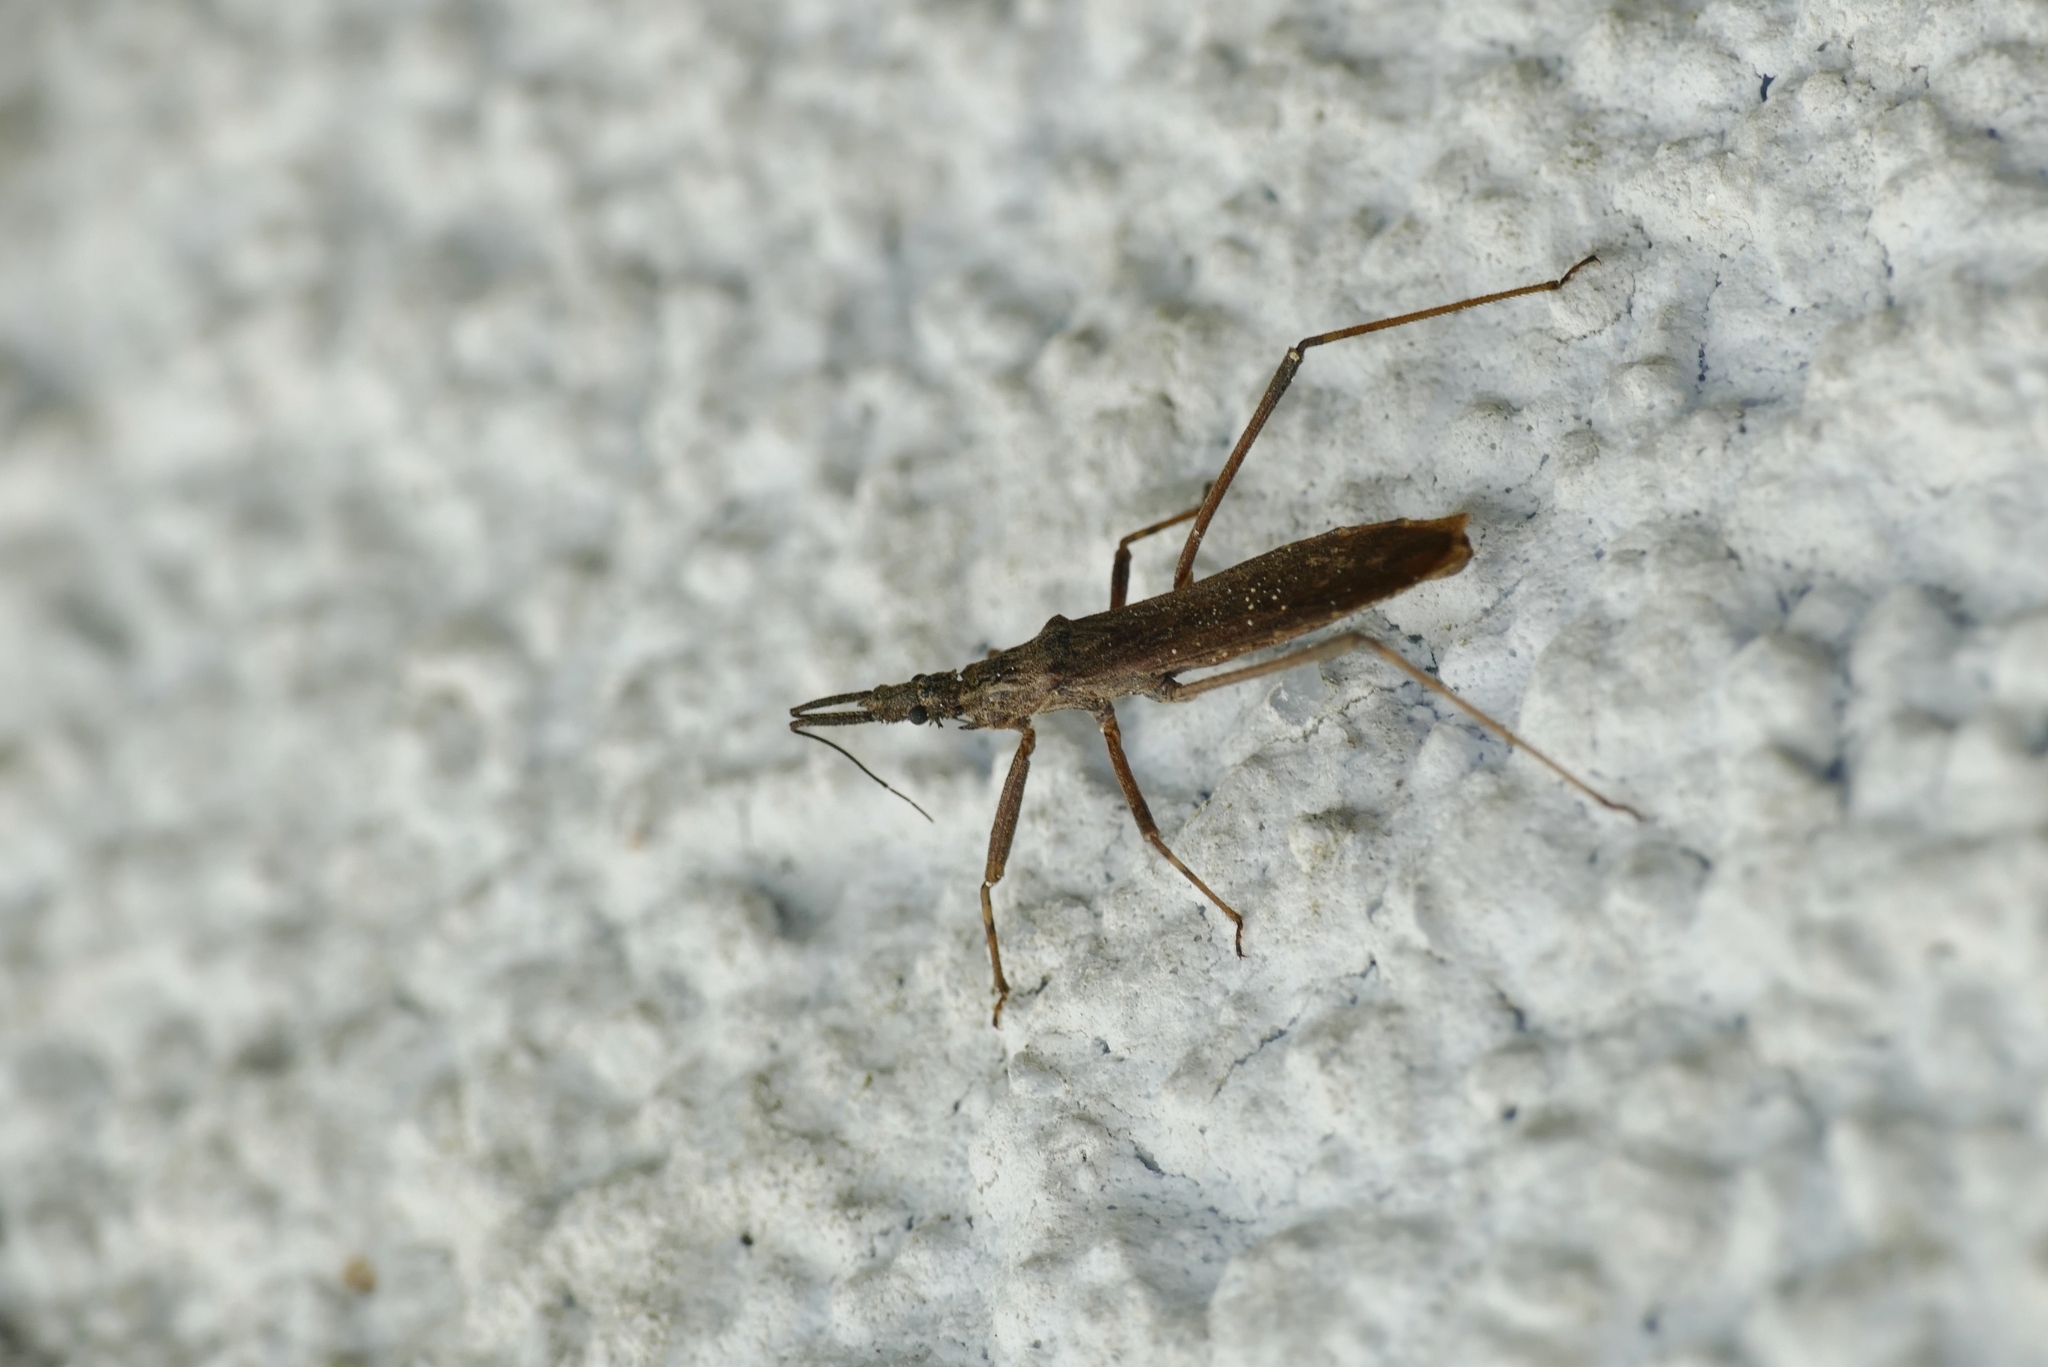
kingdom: Animalia
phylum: Arthropoda
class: Insecta
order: Hemiptera
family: Reduviidae
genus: Pygolampis
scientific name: Pygolampis bidentata
